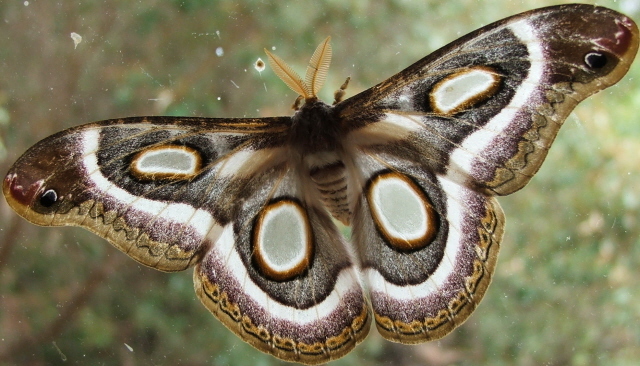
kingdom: Animalia
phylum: Arthropoda
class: Insecta
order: Lepidoptera
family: Saturniidae
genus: Epiphora
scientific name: Epiphora mythimnia
